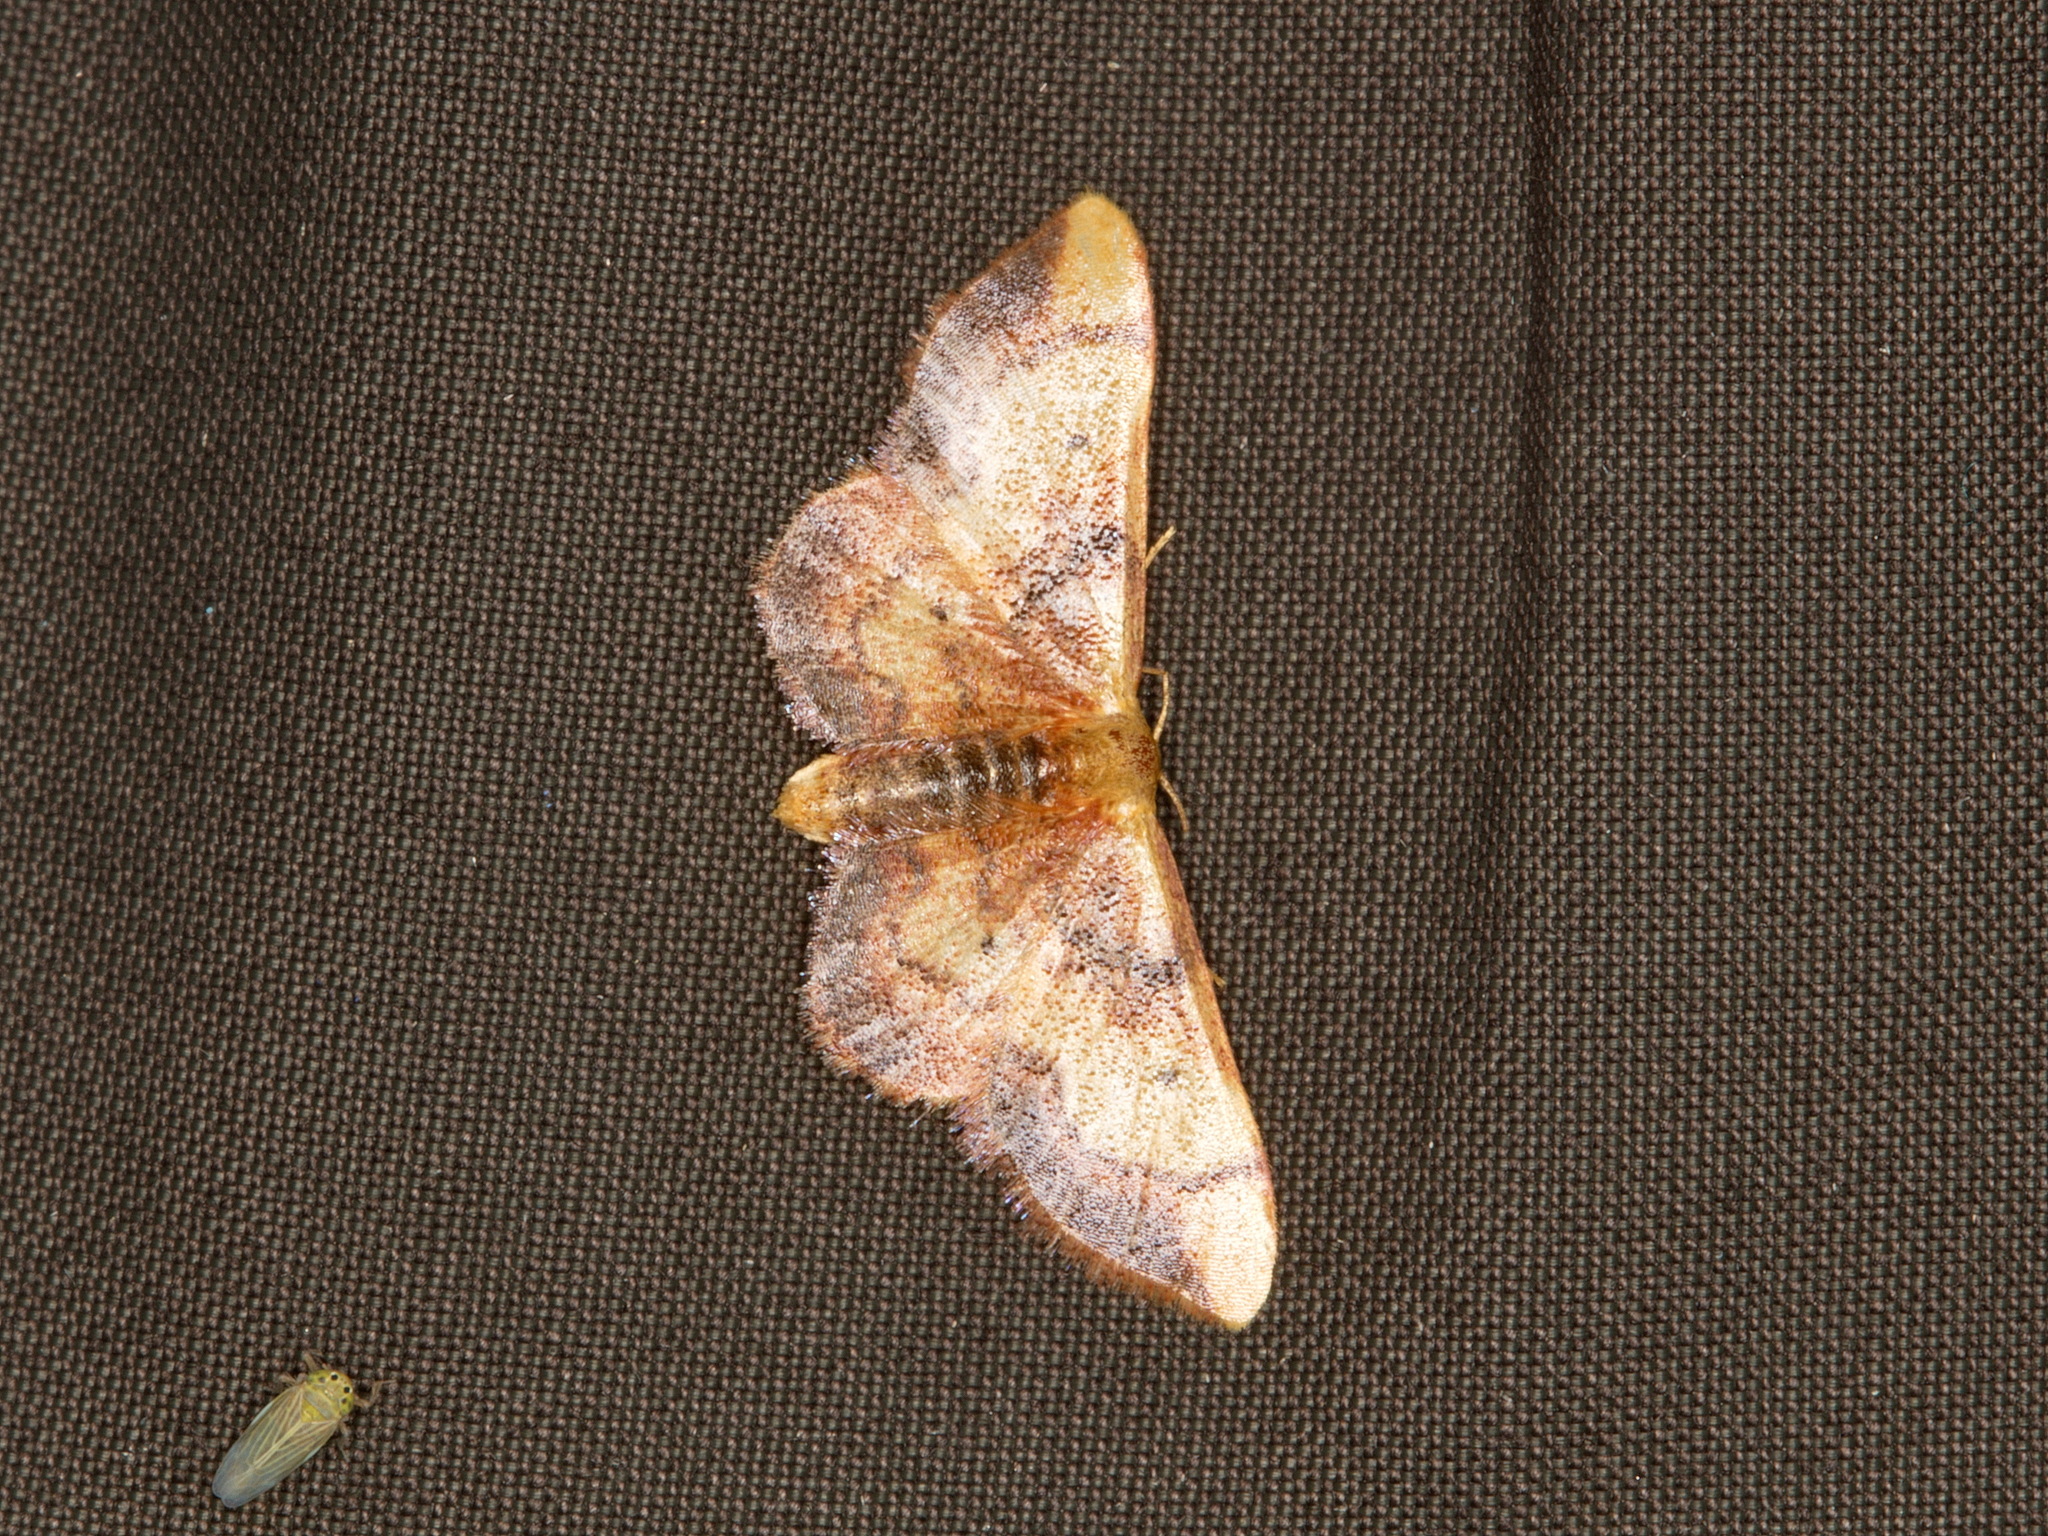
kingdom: Animalia
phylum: Arthropoda
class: Insecta
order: Lepidoptera
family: Geometridae
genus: Idaea
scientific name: Idaea demissaria
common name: Red-bordered wave
